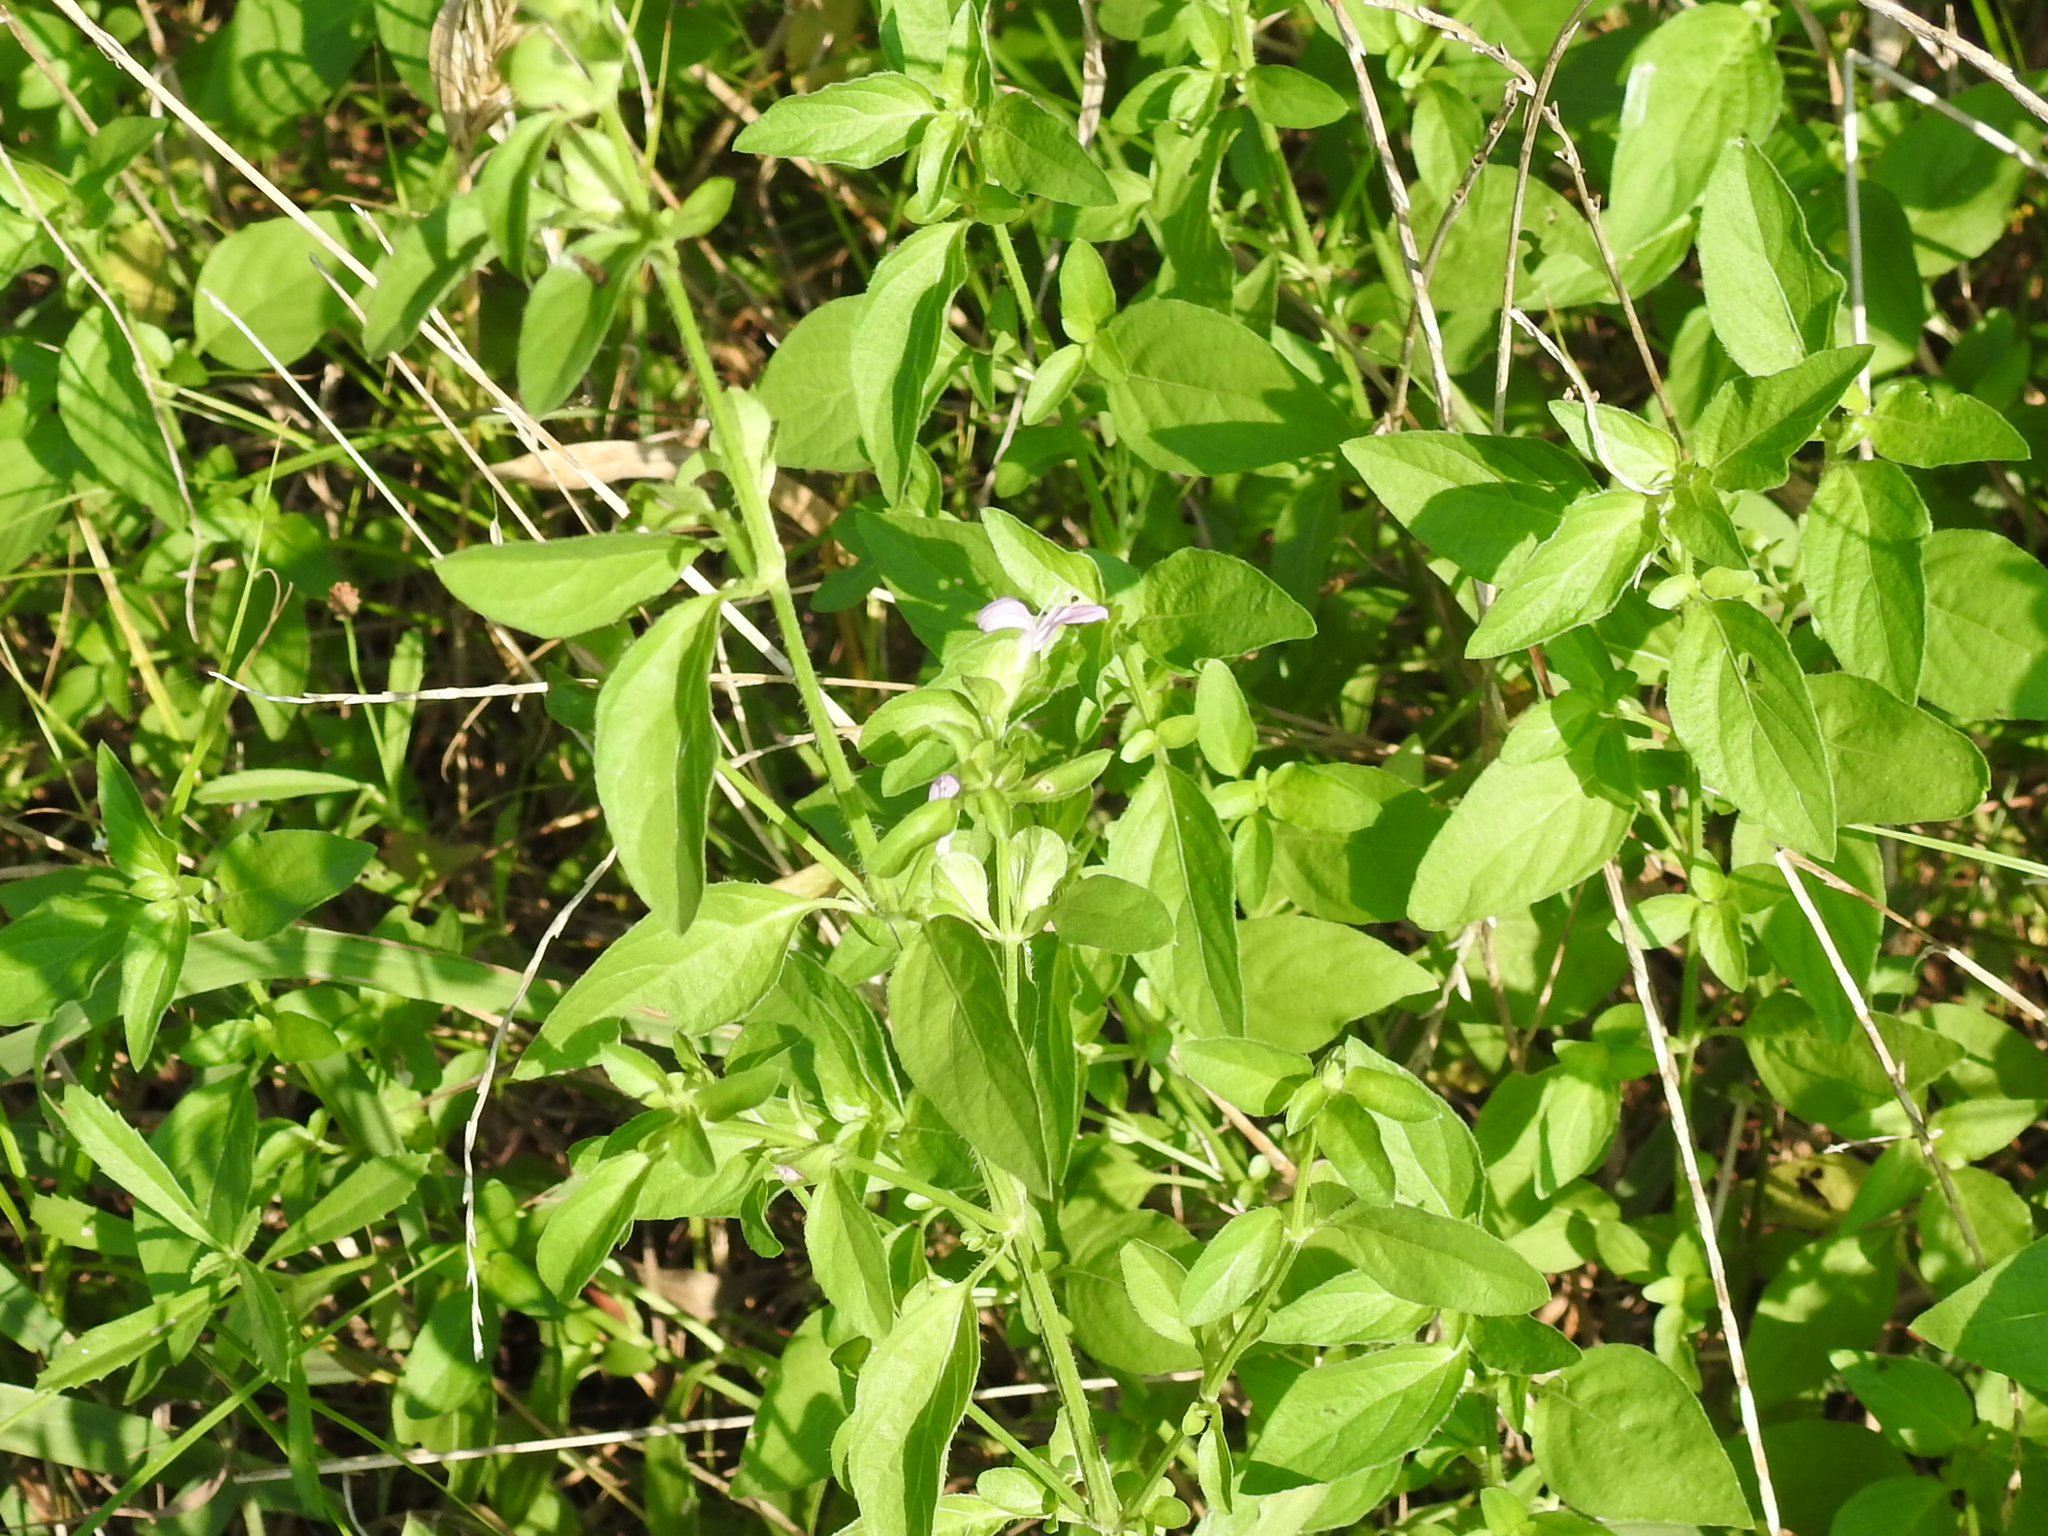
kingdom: Plantae
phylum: Tracheophyta
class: Magnoliopsida
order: Lamiales
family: Acanthaceae
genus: Dicliptera
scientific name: Dicliptera brachiata
